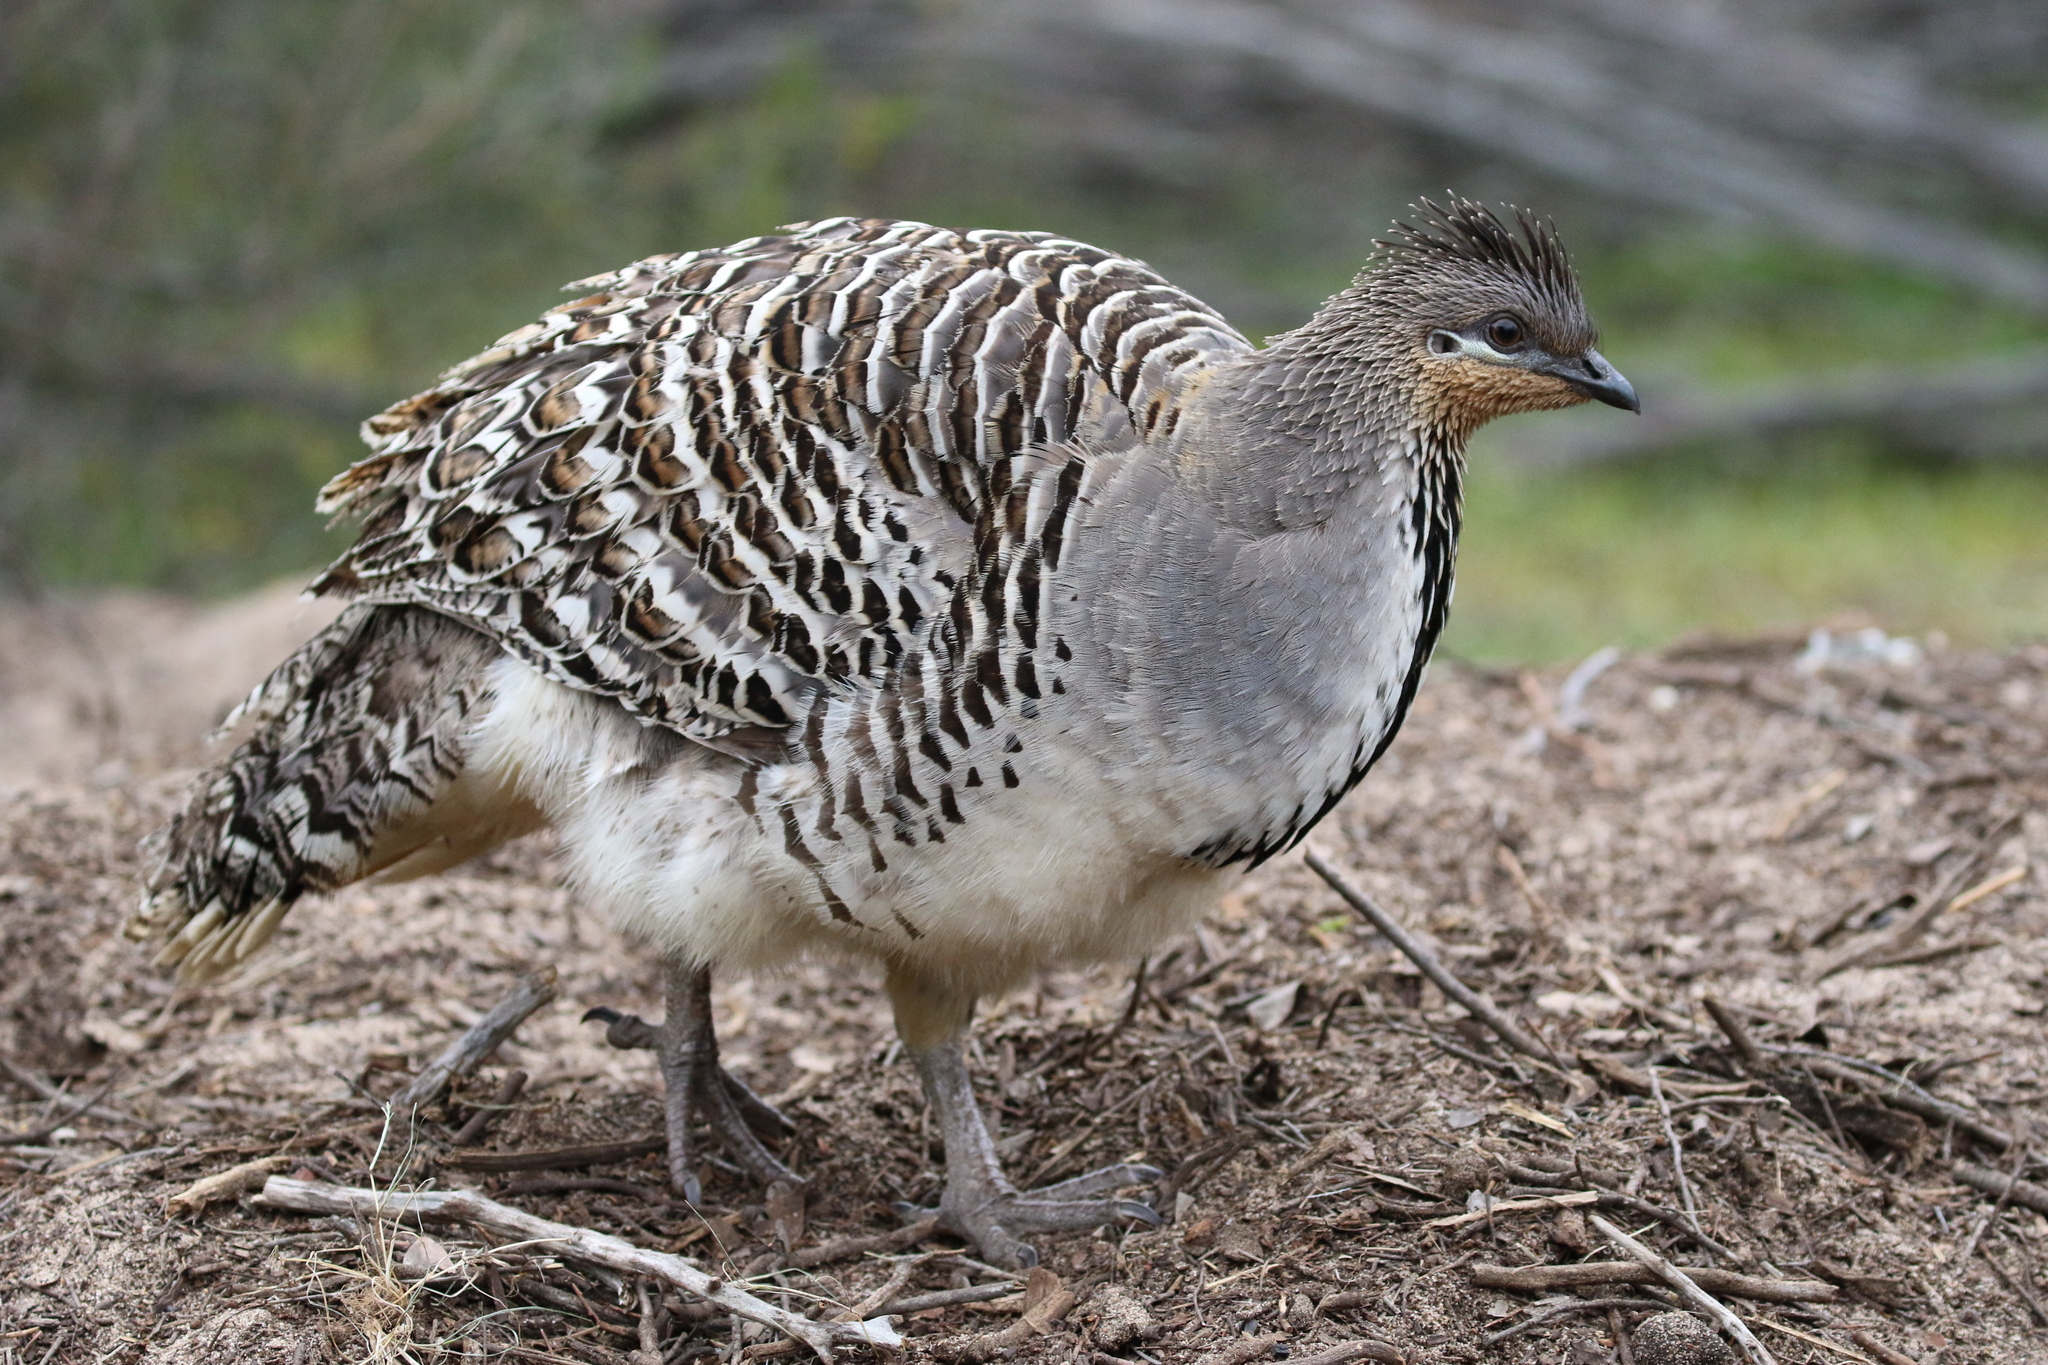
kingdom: Animalia
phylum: Chordata
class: Aves
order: Galliformes
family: Megapodiidae
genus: Leipoa
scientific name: Leipoa ocellata
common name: Malleefowl
